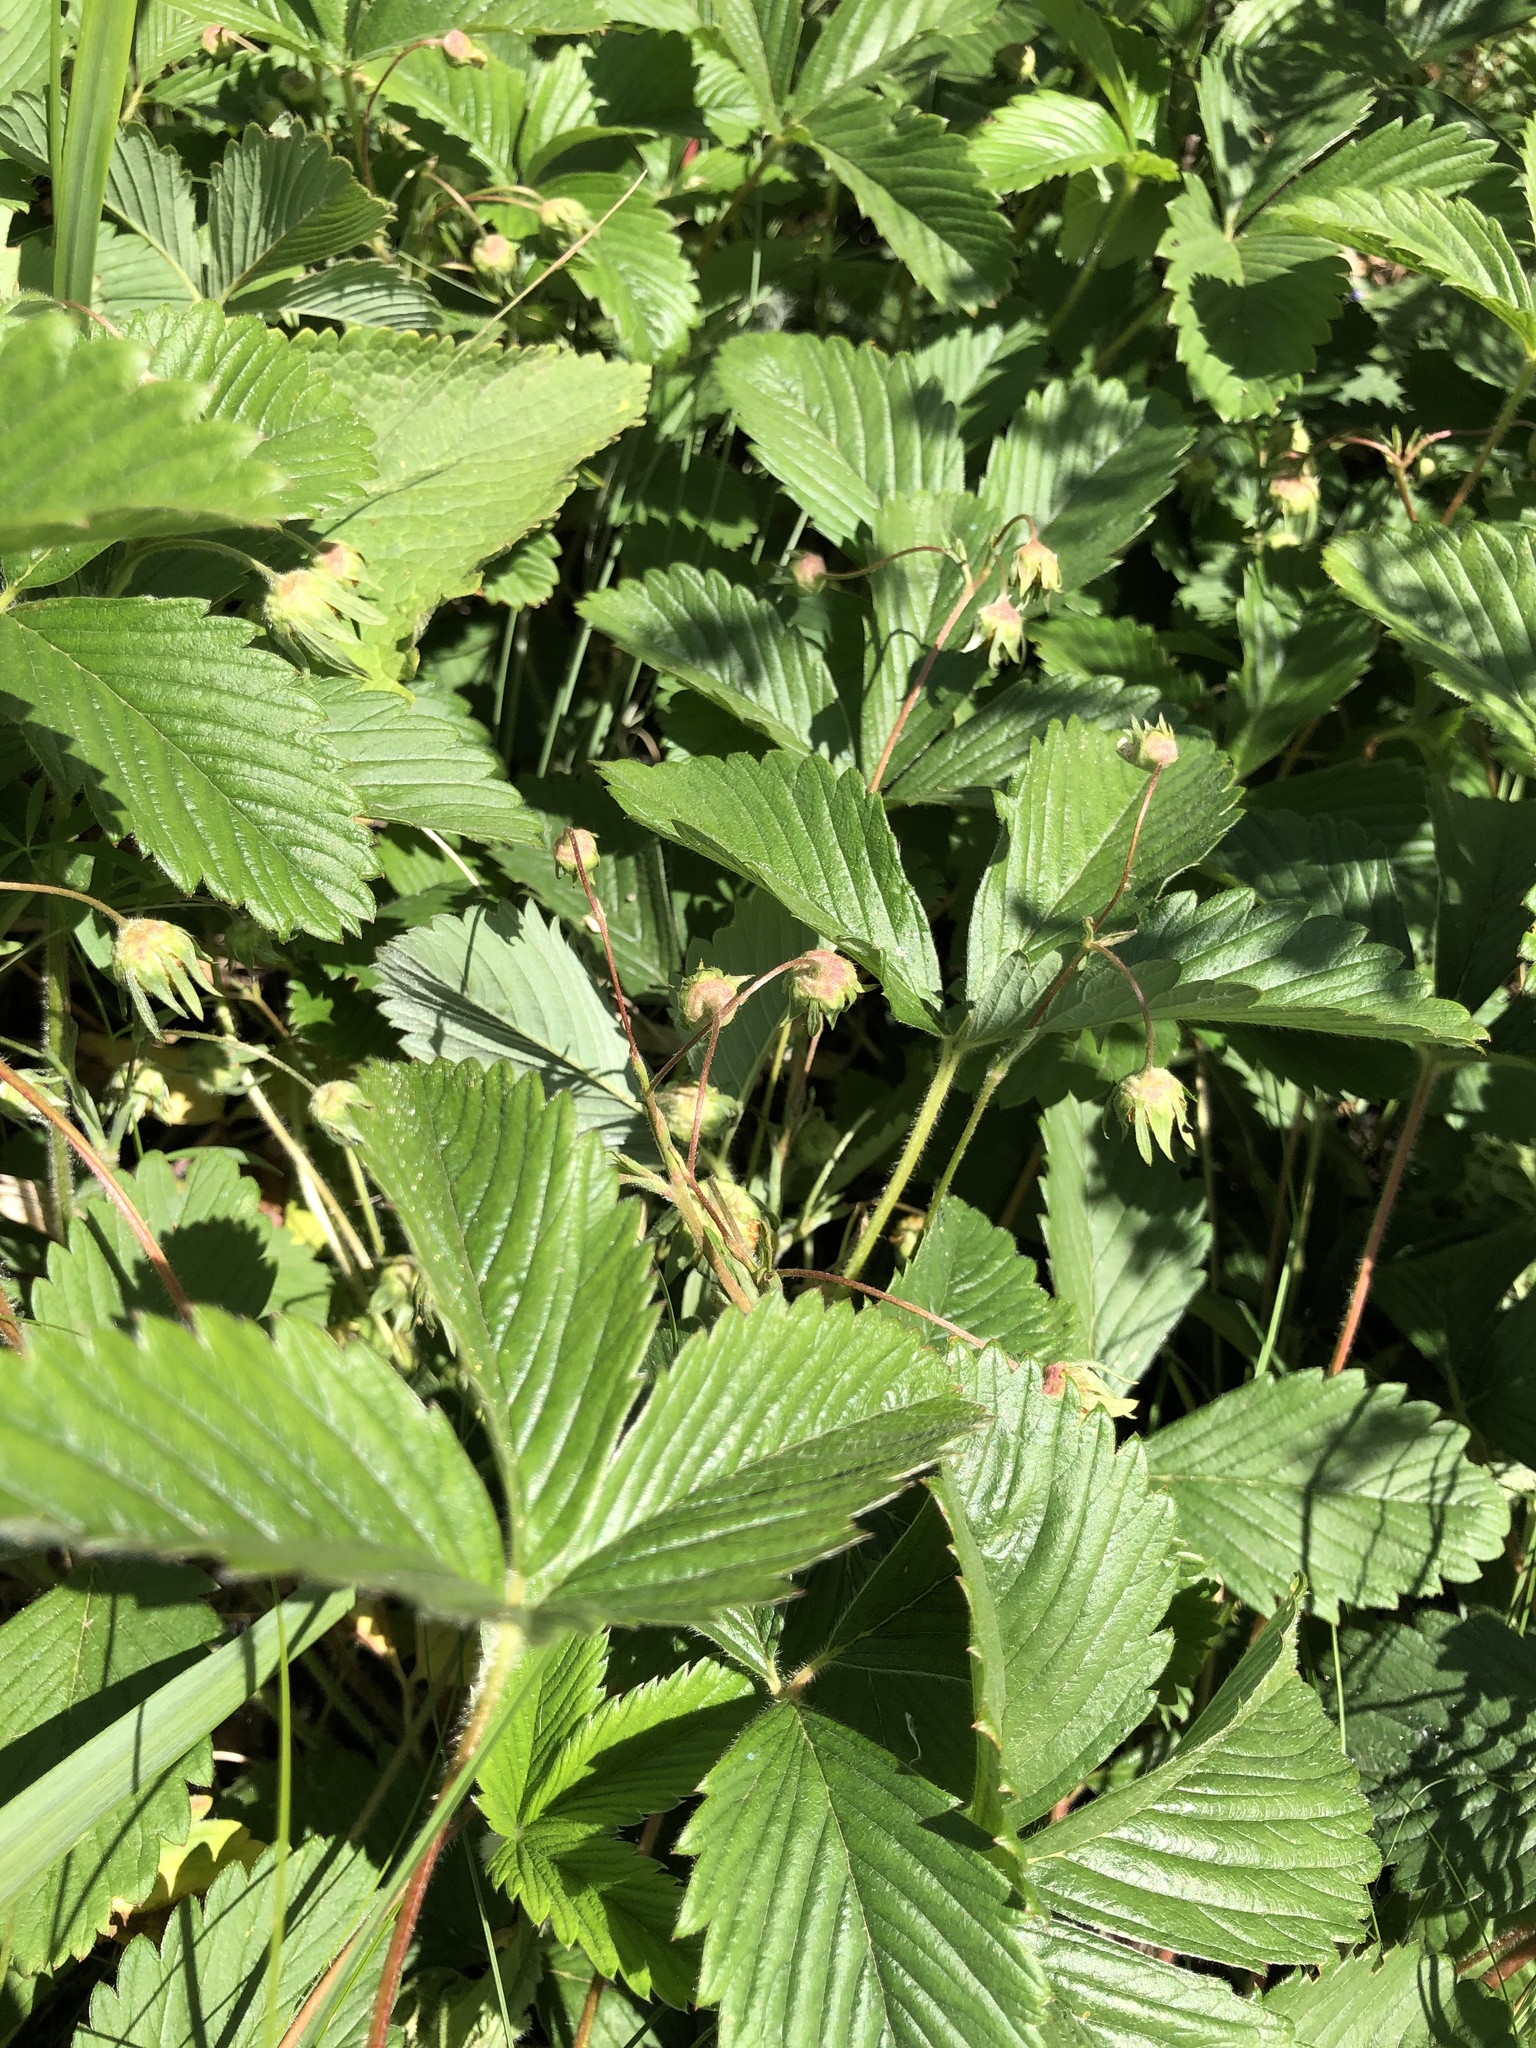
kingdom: Plantae
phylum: Tracheophyta
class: Magnoliopsida
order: Rosales
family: Rosaceae
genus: Fragaria
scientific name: Fragaria viridis
